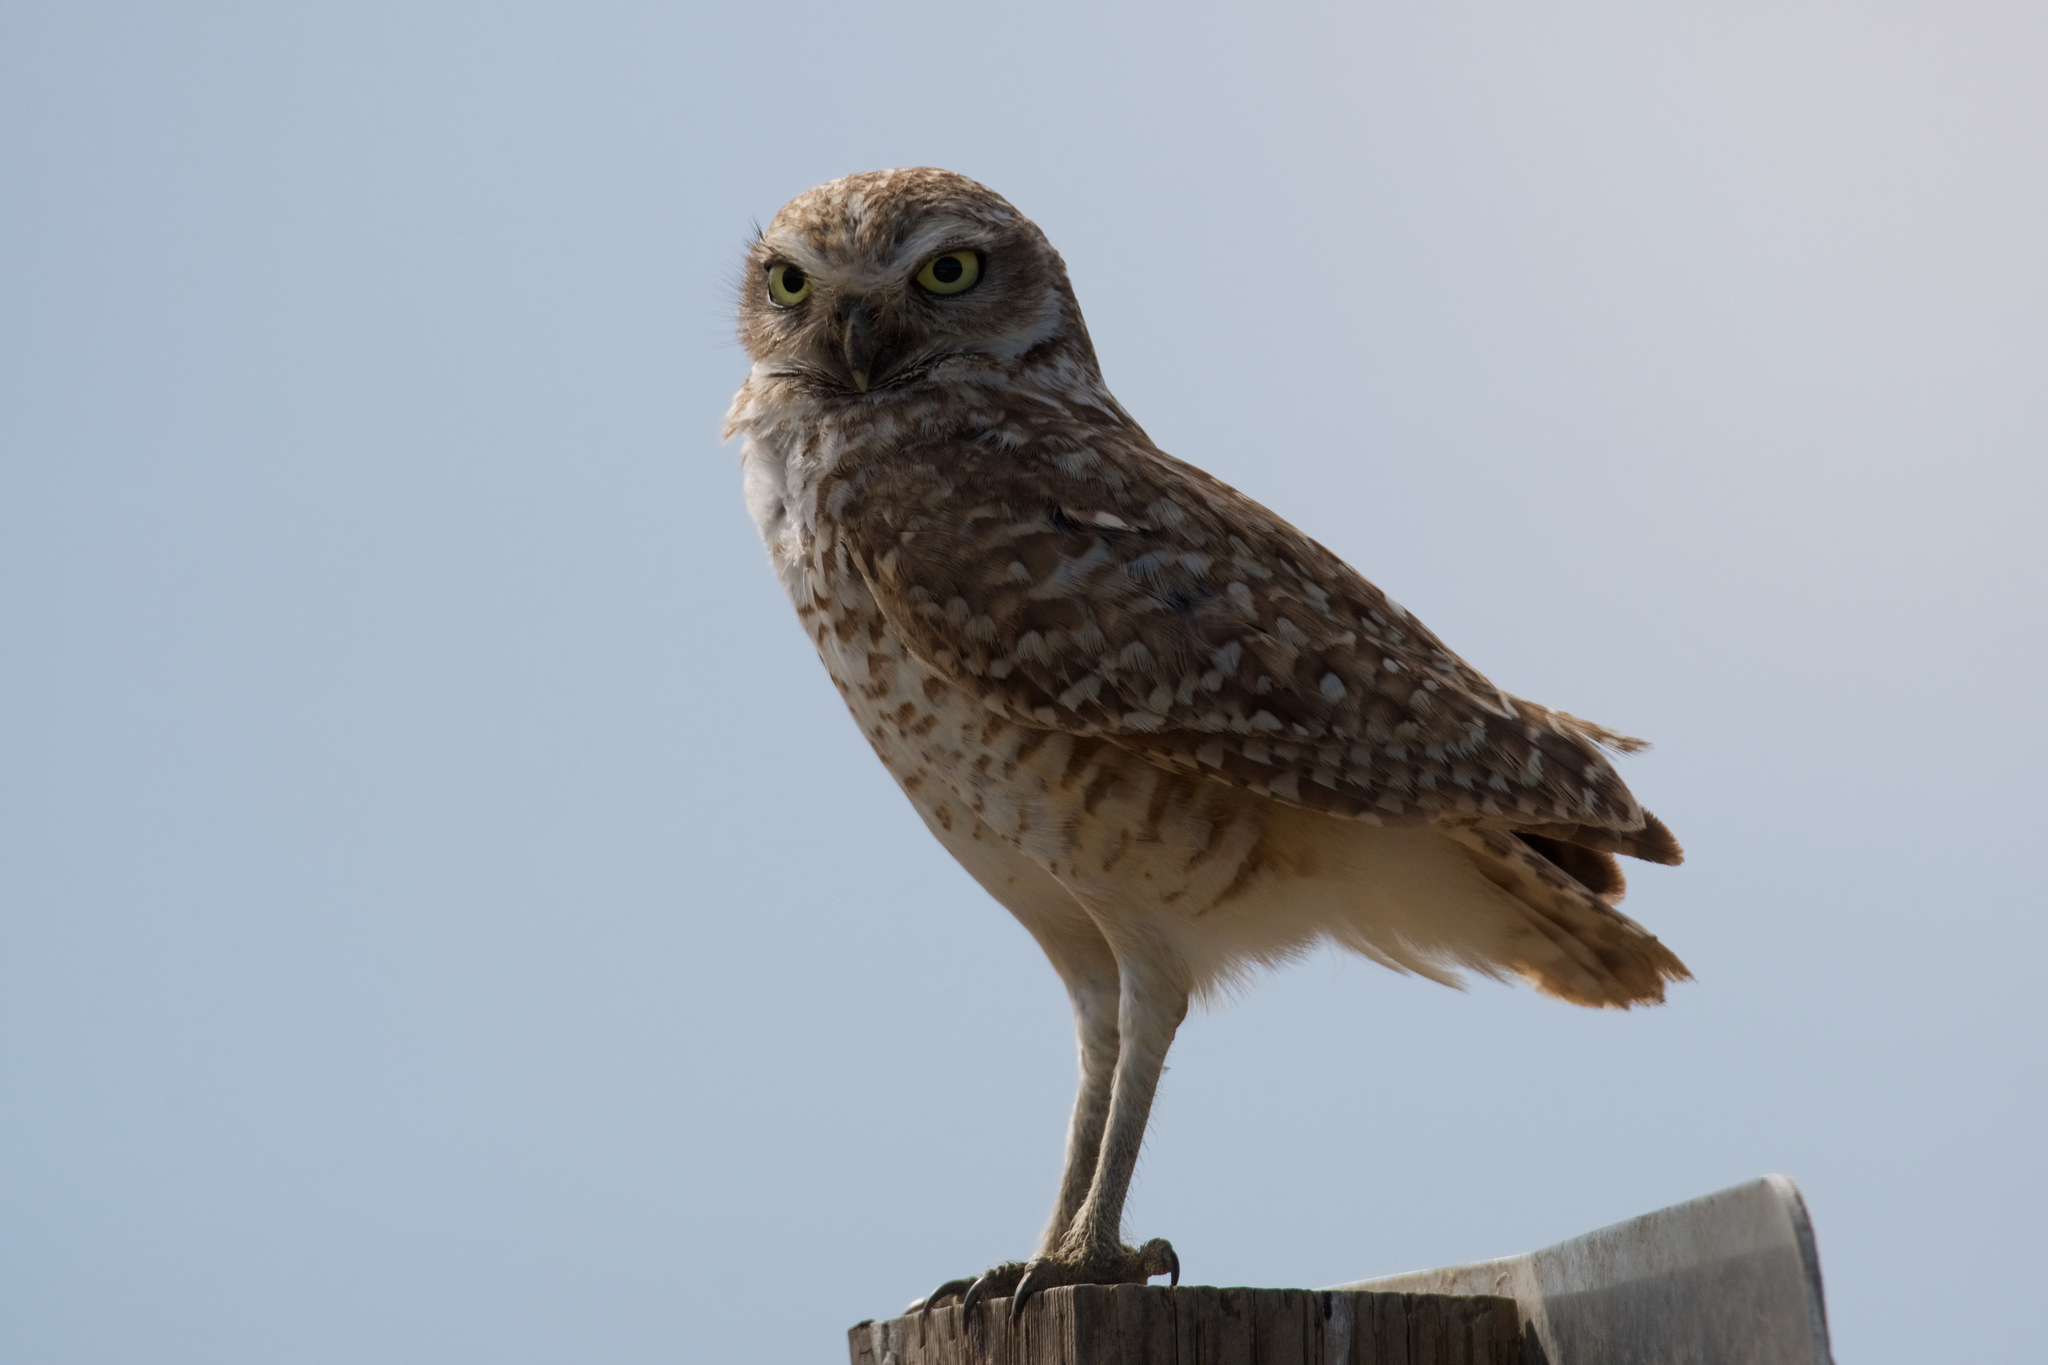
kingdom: Animalia
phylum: Chordata
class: Aves
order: Strigiformes
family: Strigidae
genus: Athene
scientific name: Athene cunicularia
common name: Burrowing owl
